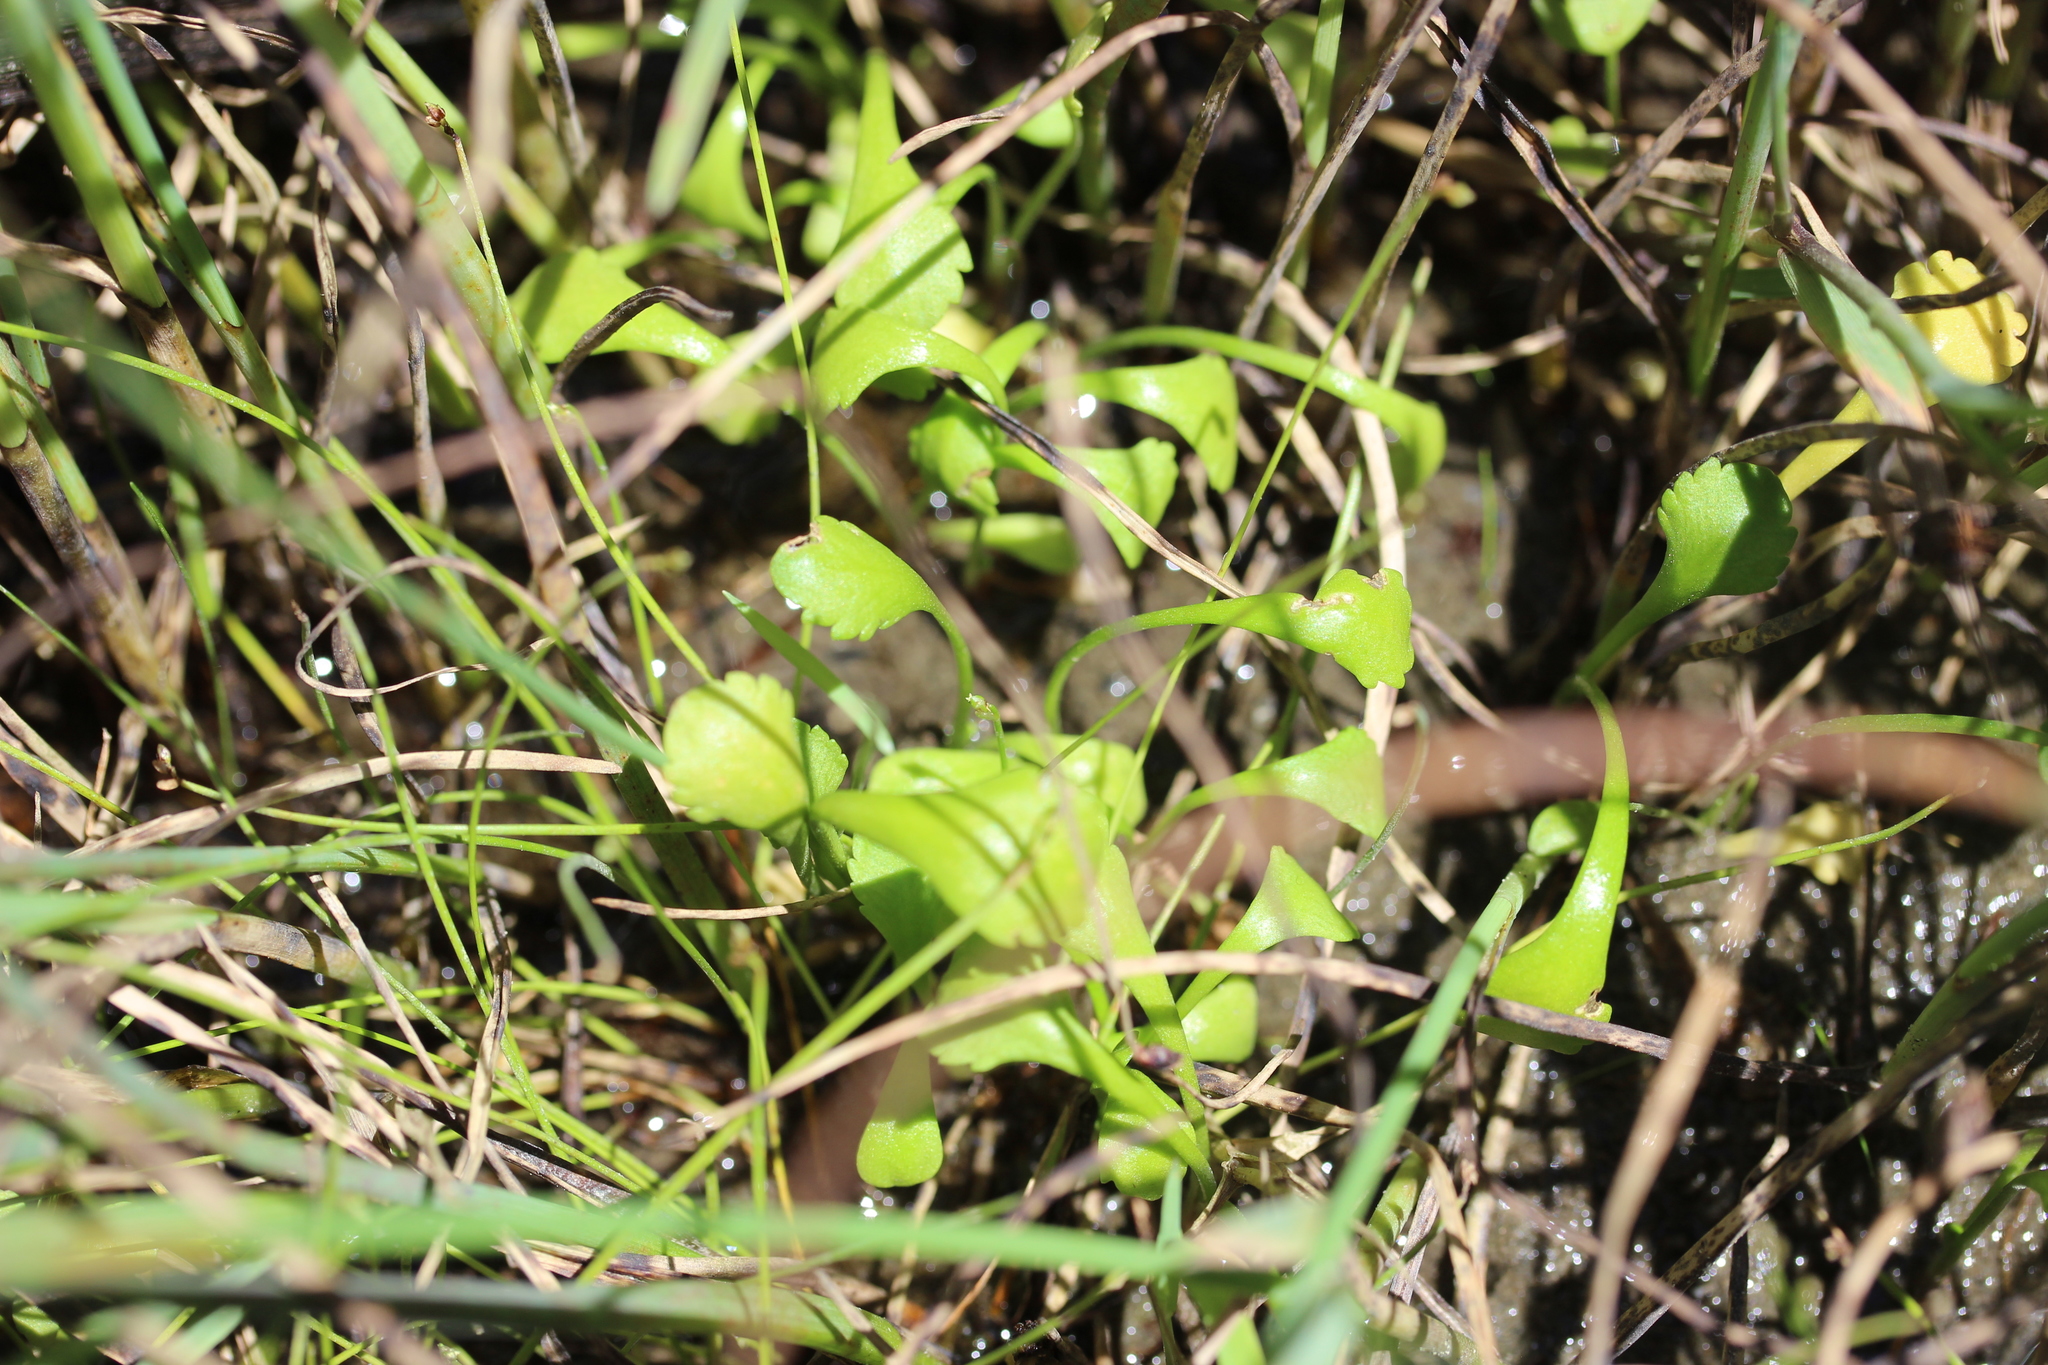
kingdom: Plantae
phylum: Tracheophyta
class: Magnoliopsida
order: Asterales
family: Asteraceae
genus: Leptinella
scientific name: Leptinella dioica
